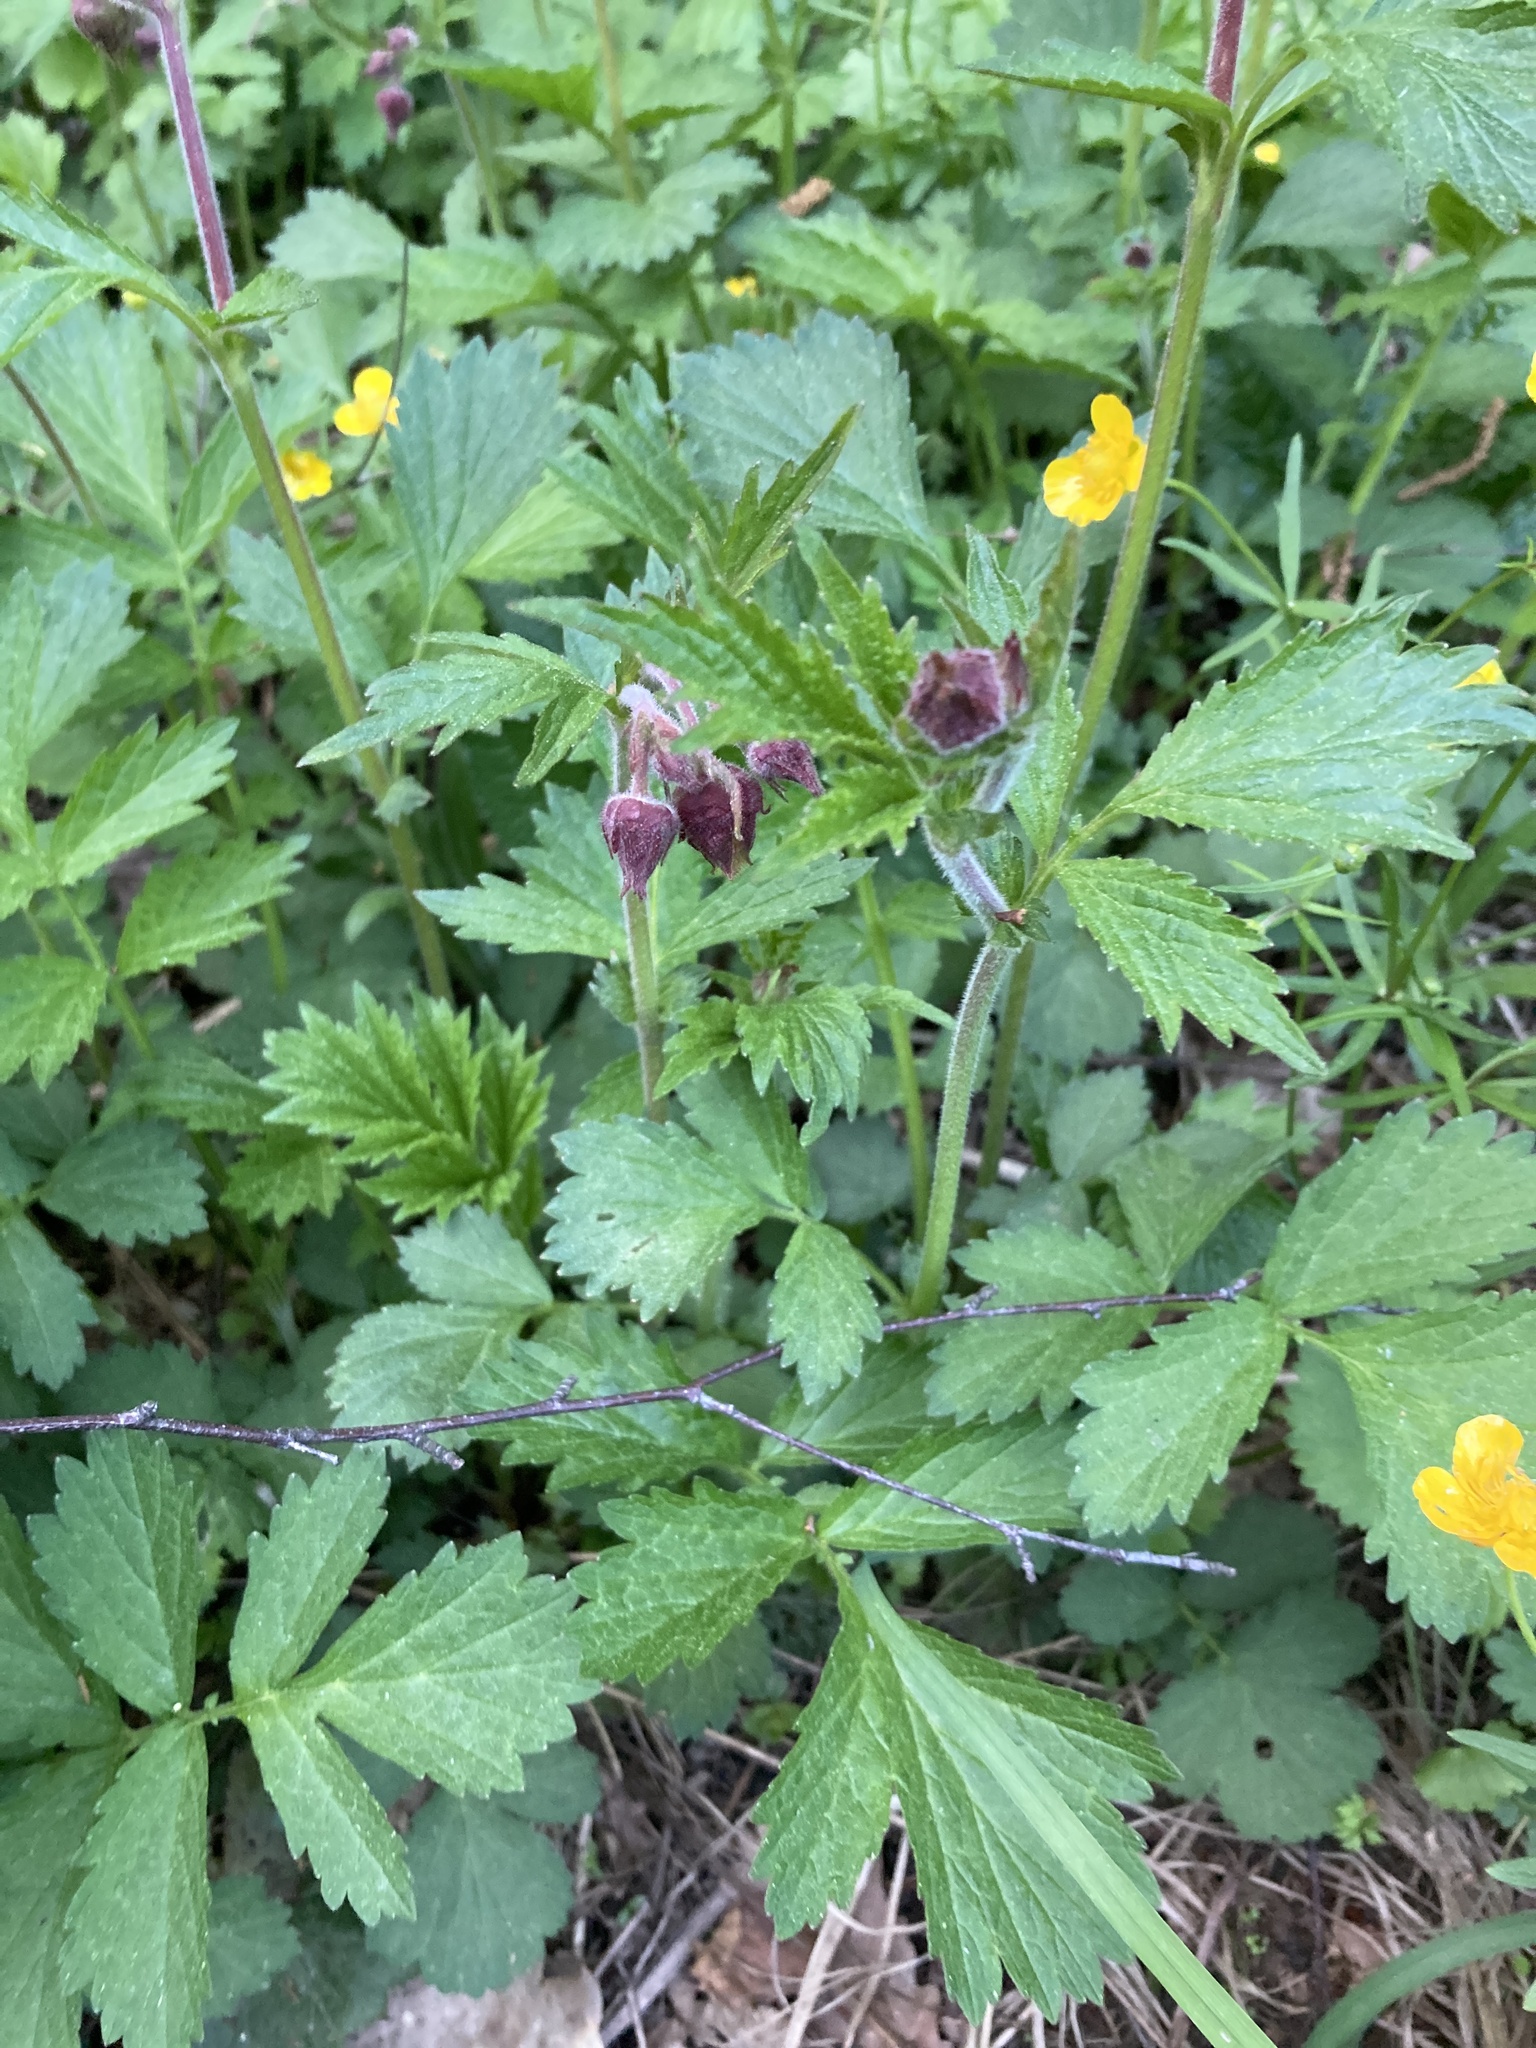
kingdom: Plantae
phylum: Tracheophyta
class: Magnoliopsida
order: Rosales
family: Rosaceae
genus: Geum
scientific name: Geum rivale
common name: Water avens
